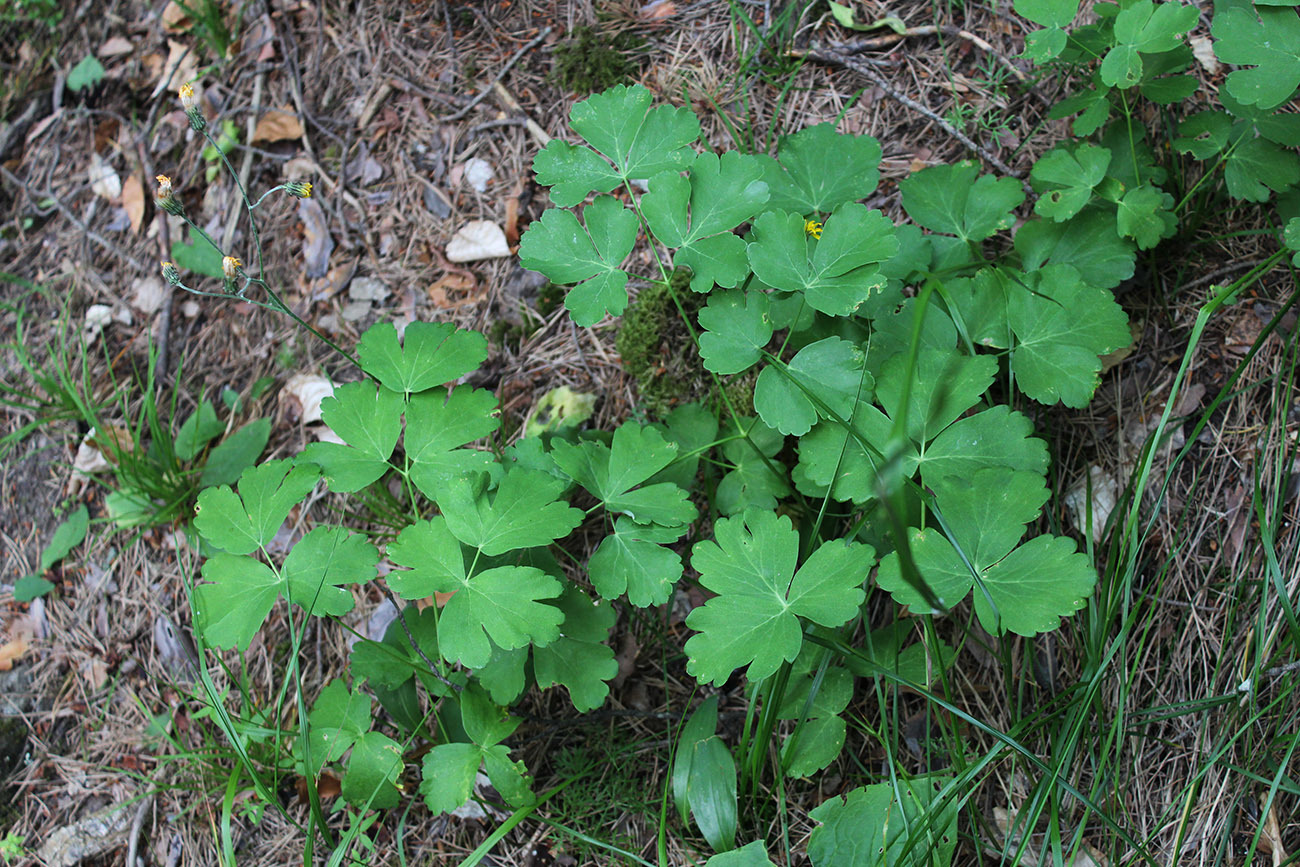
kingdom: Plantae
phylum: Tracheophyta
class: Magnoliopsida
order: Apiales
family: Apiaceae
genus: Laser
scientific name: Laser trilobum
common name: Laser
